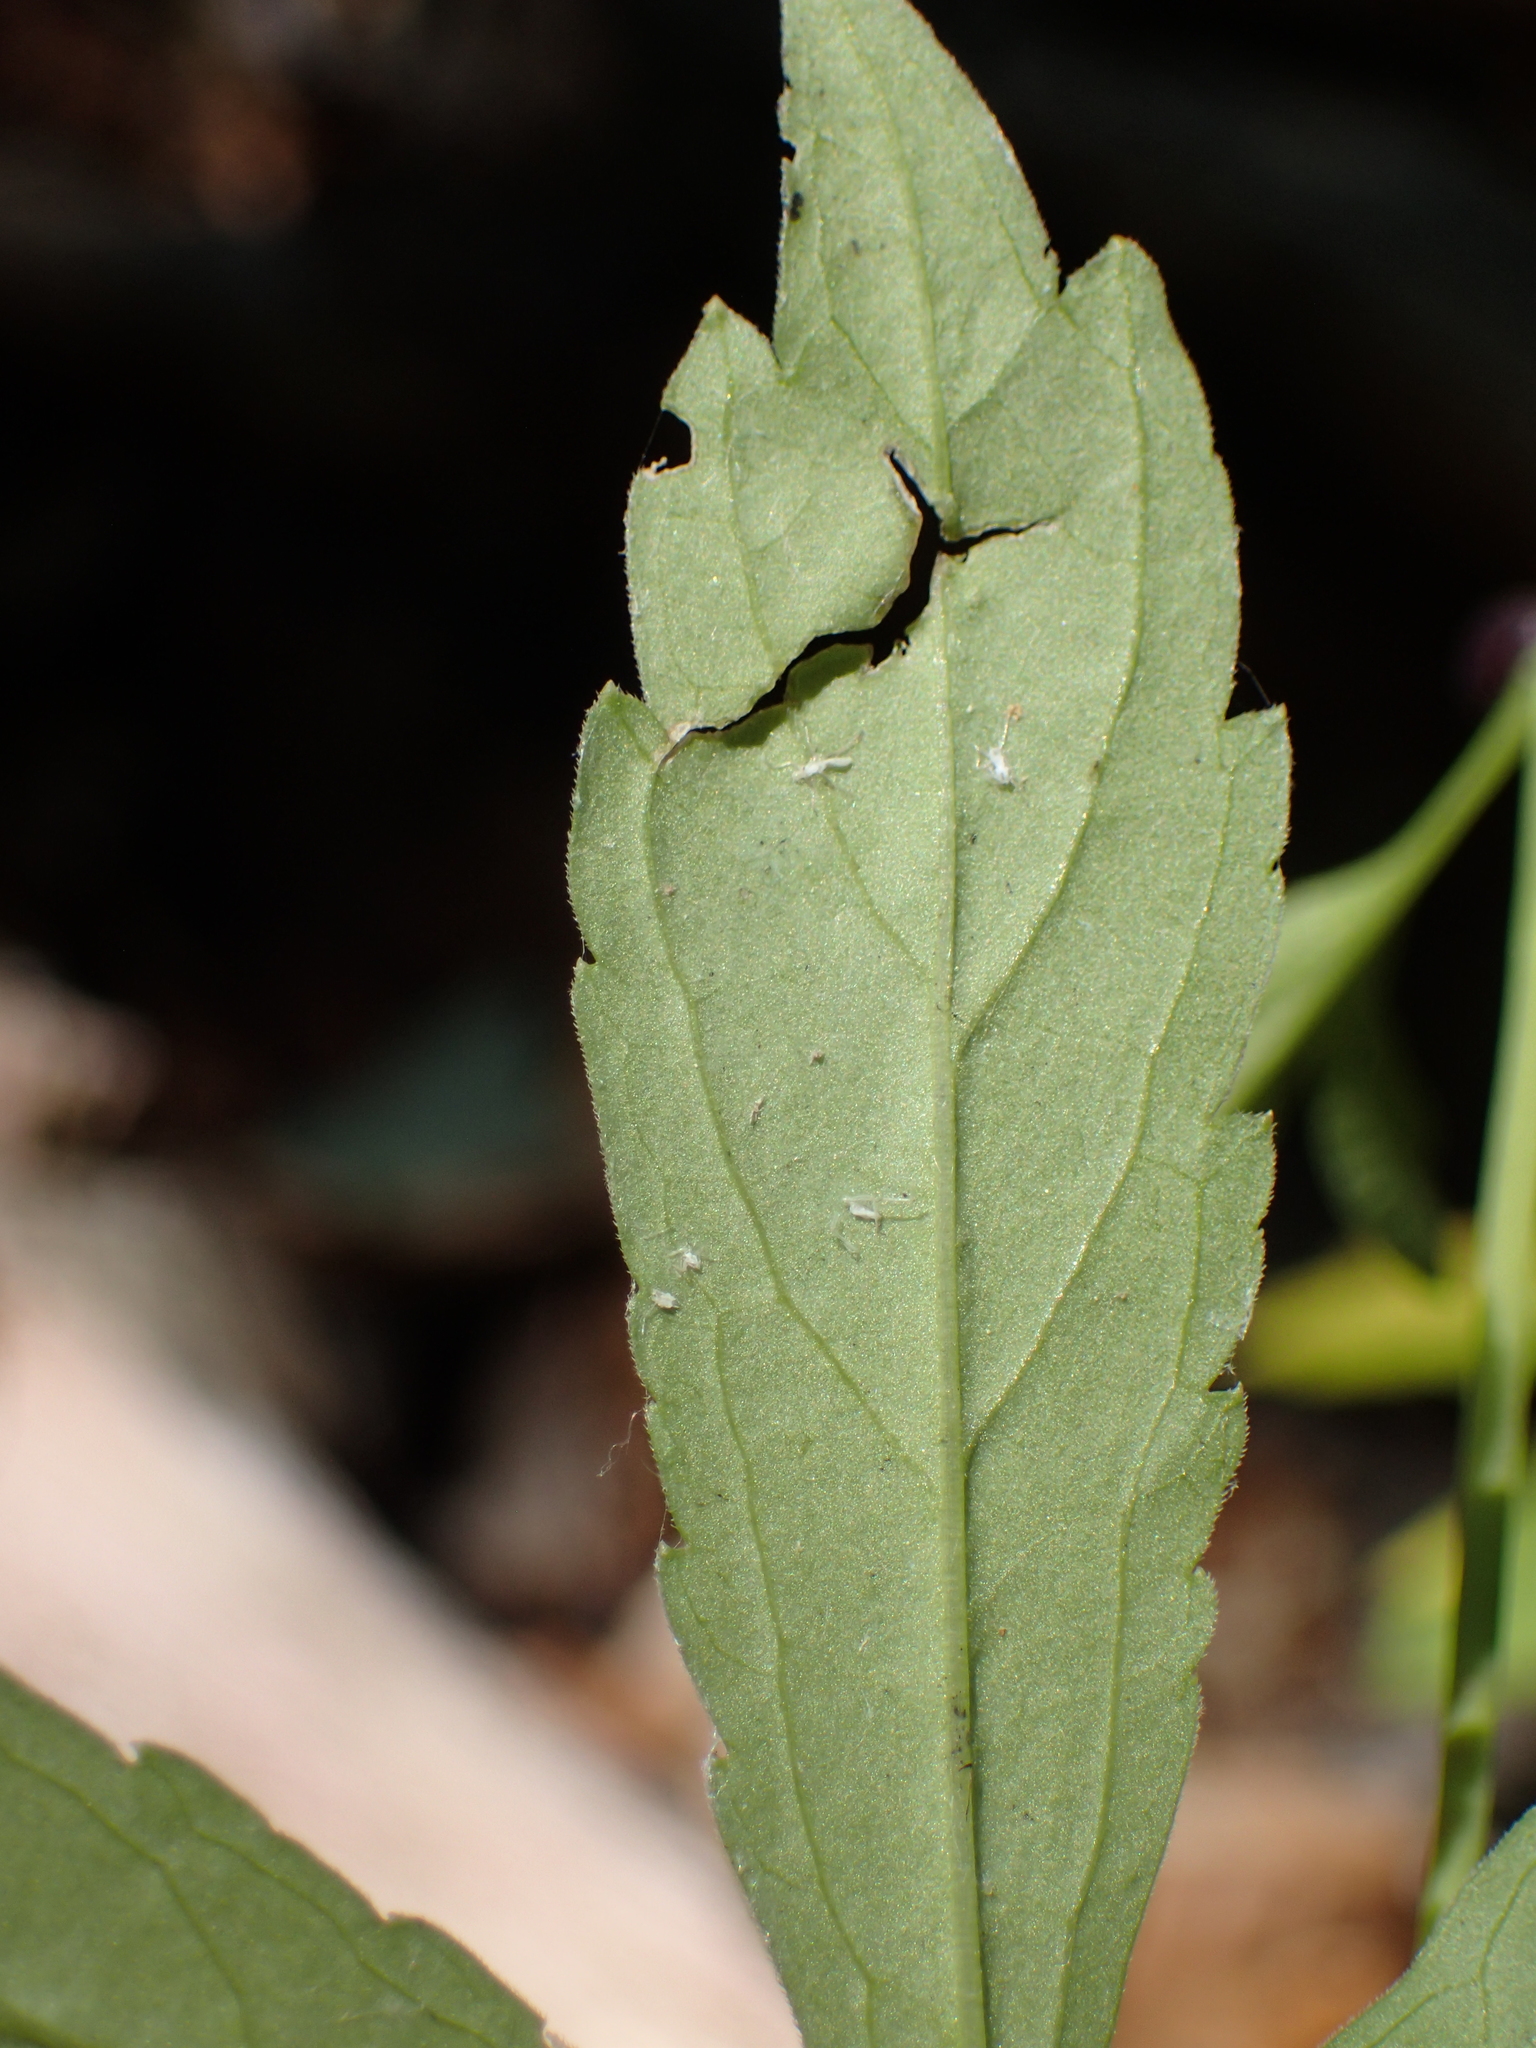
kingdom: Plantae
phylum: Tracheophyta
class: Magnoliopsida
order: Brassicales
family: Brassicaceae
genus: Cardamine
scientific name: Cardamine bulbifera
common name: Coralroot bittercress
